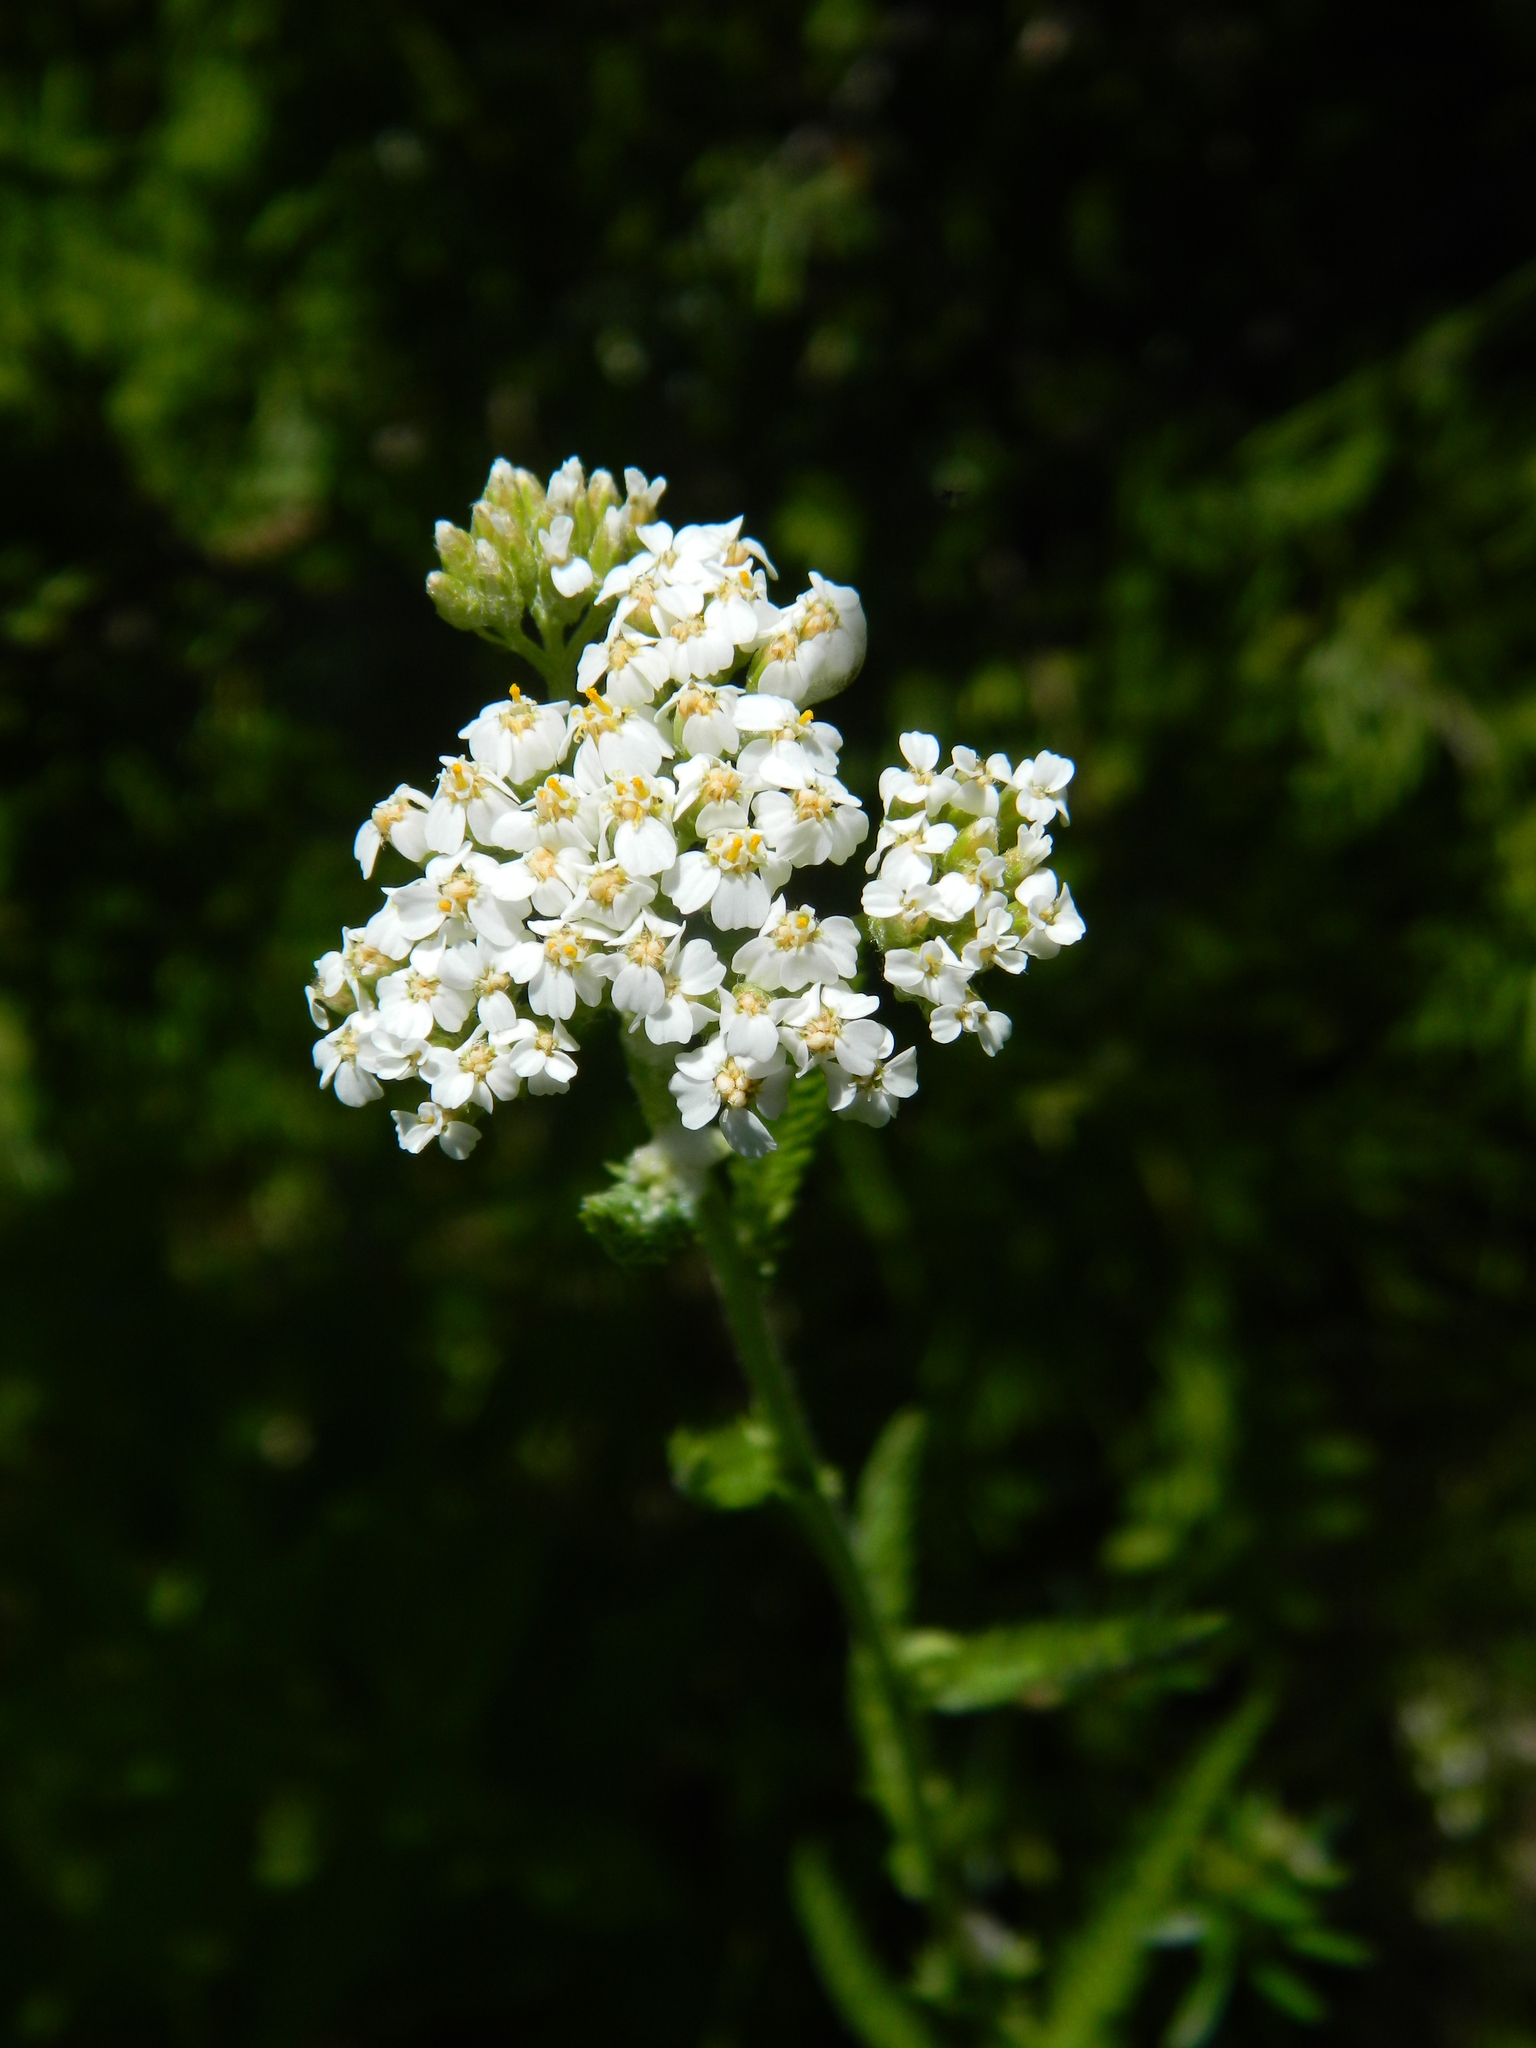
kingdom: Plantae
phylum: Tracheophyta
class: Magnoliopsida
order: Asterales
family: Asteraceae
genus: Achillea
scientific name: Achillea millefolium
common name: Yarrow
